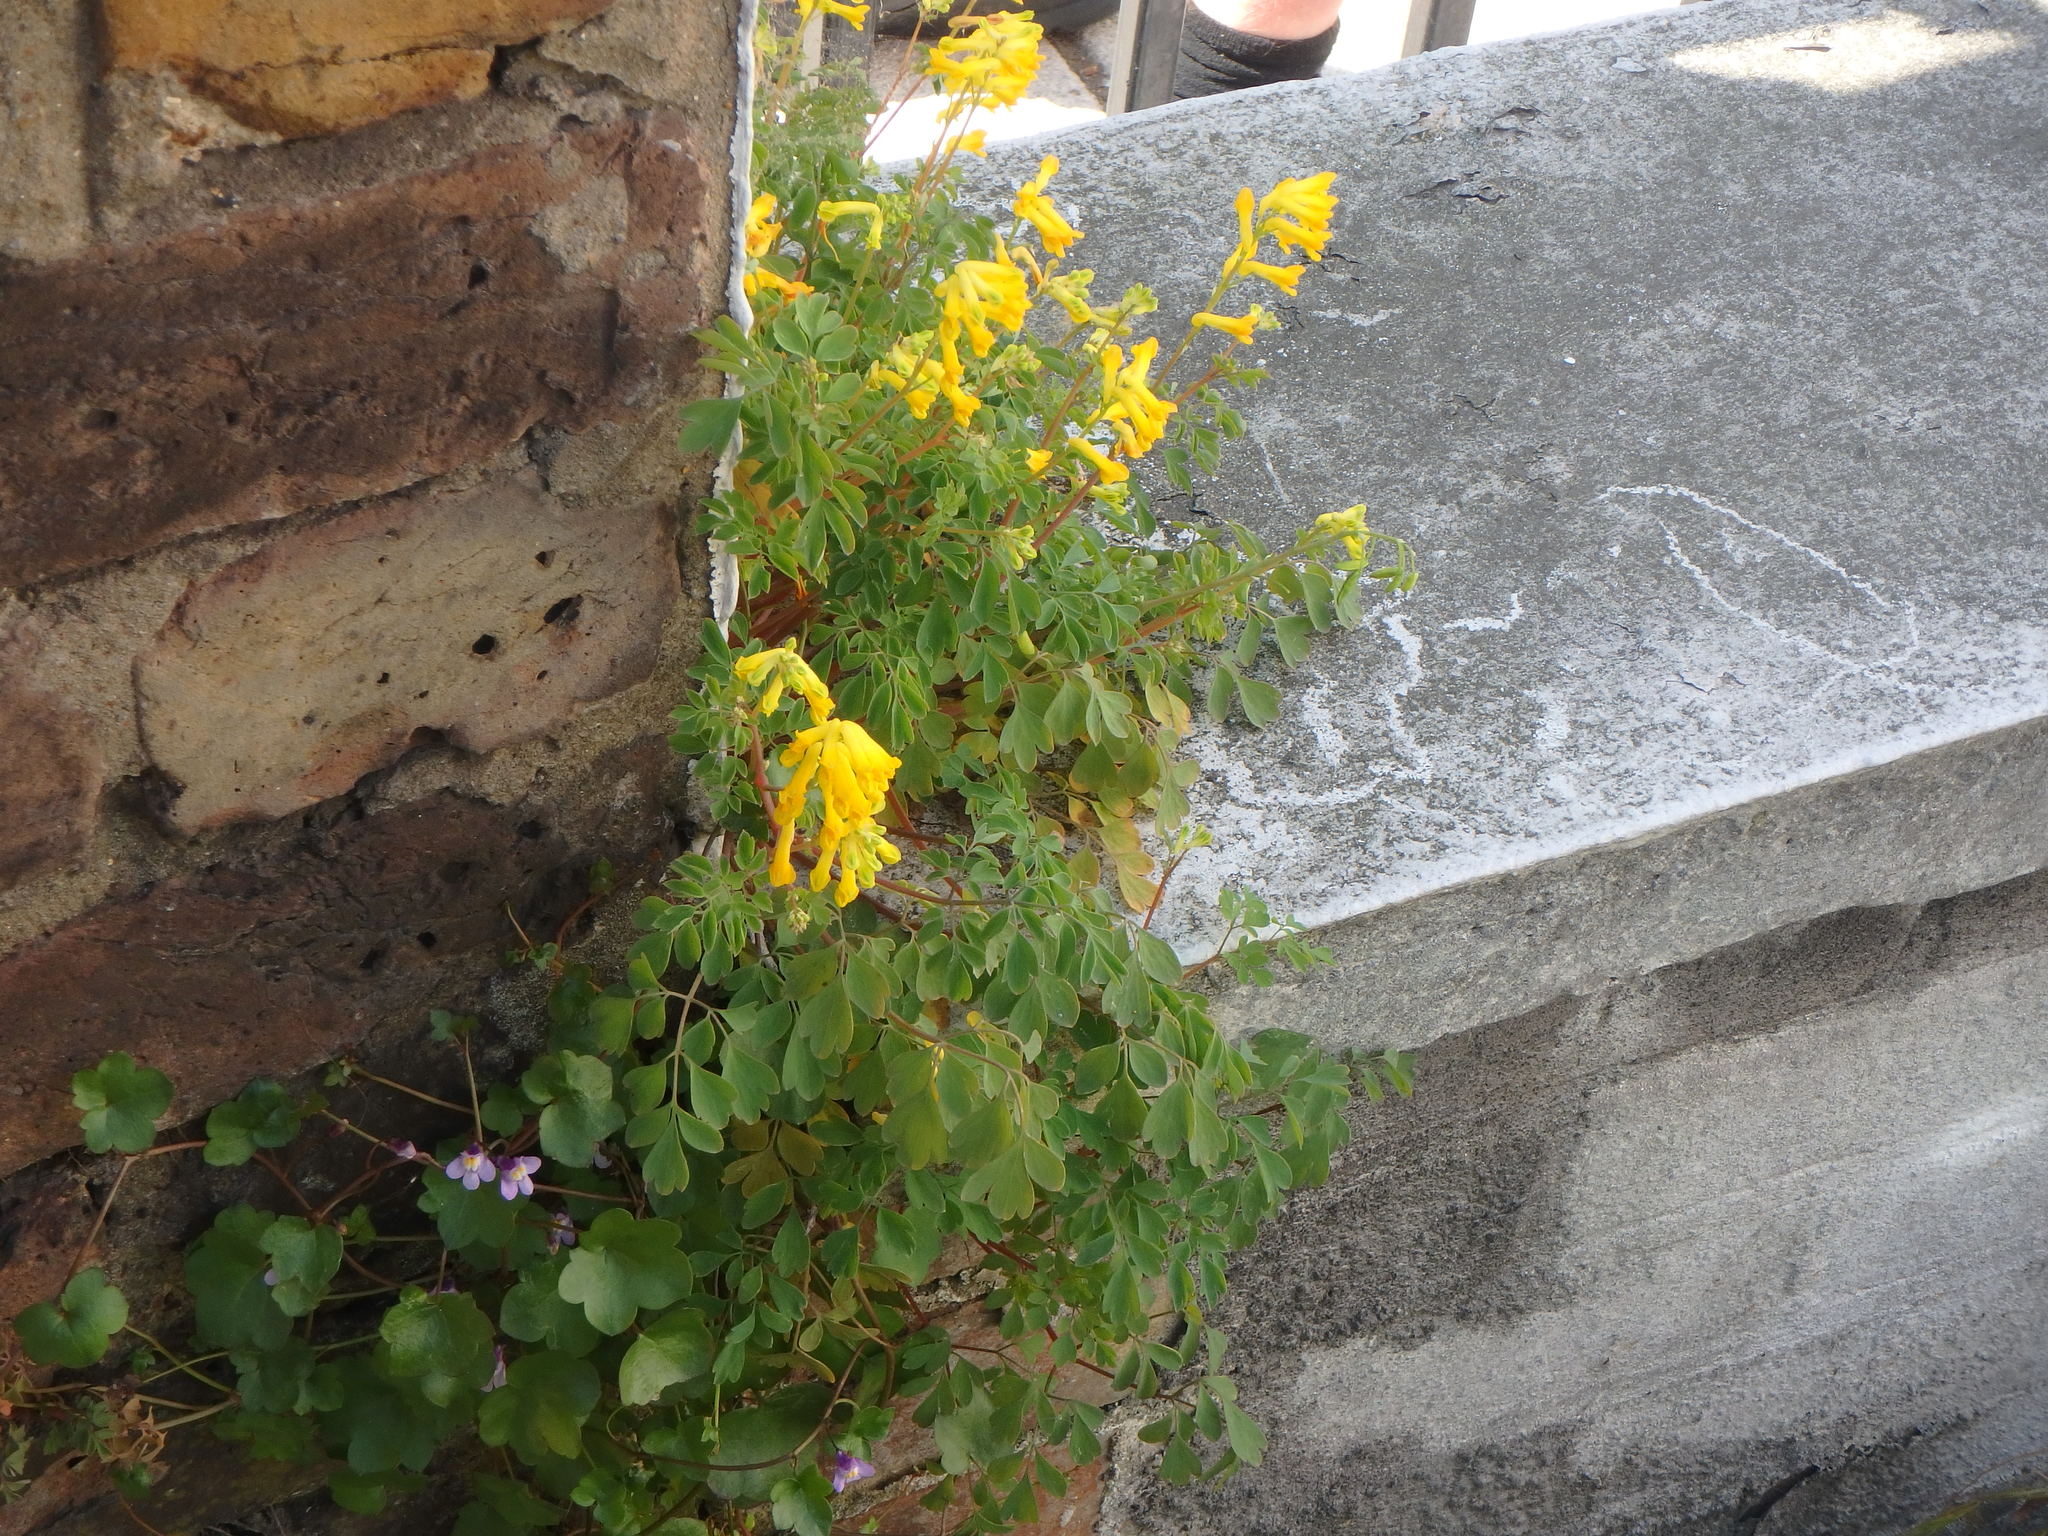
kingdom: Plantae
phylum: Tracheophyta
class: Magnoliopsida
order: Ranunculales
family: Papaveraceae
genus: Pseudofumaria
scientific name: Pseudofumaria lutea
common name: Yellow corydalis
